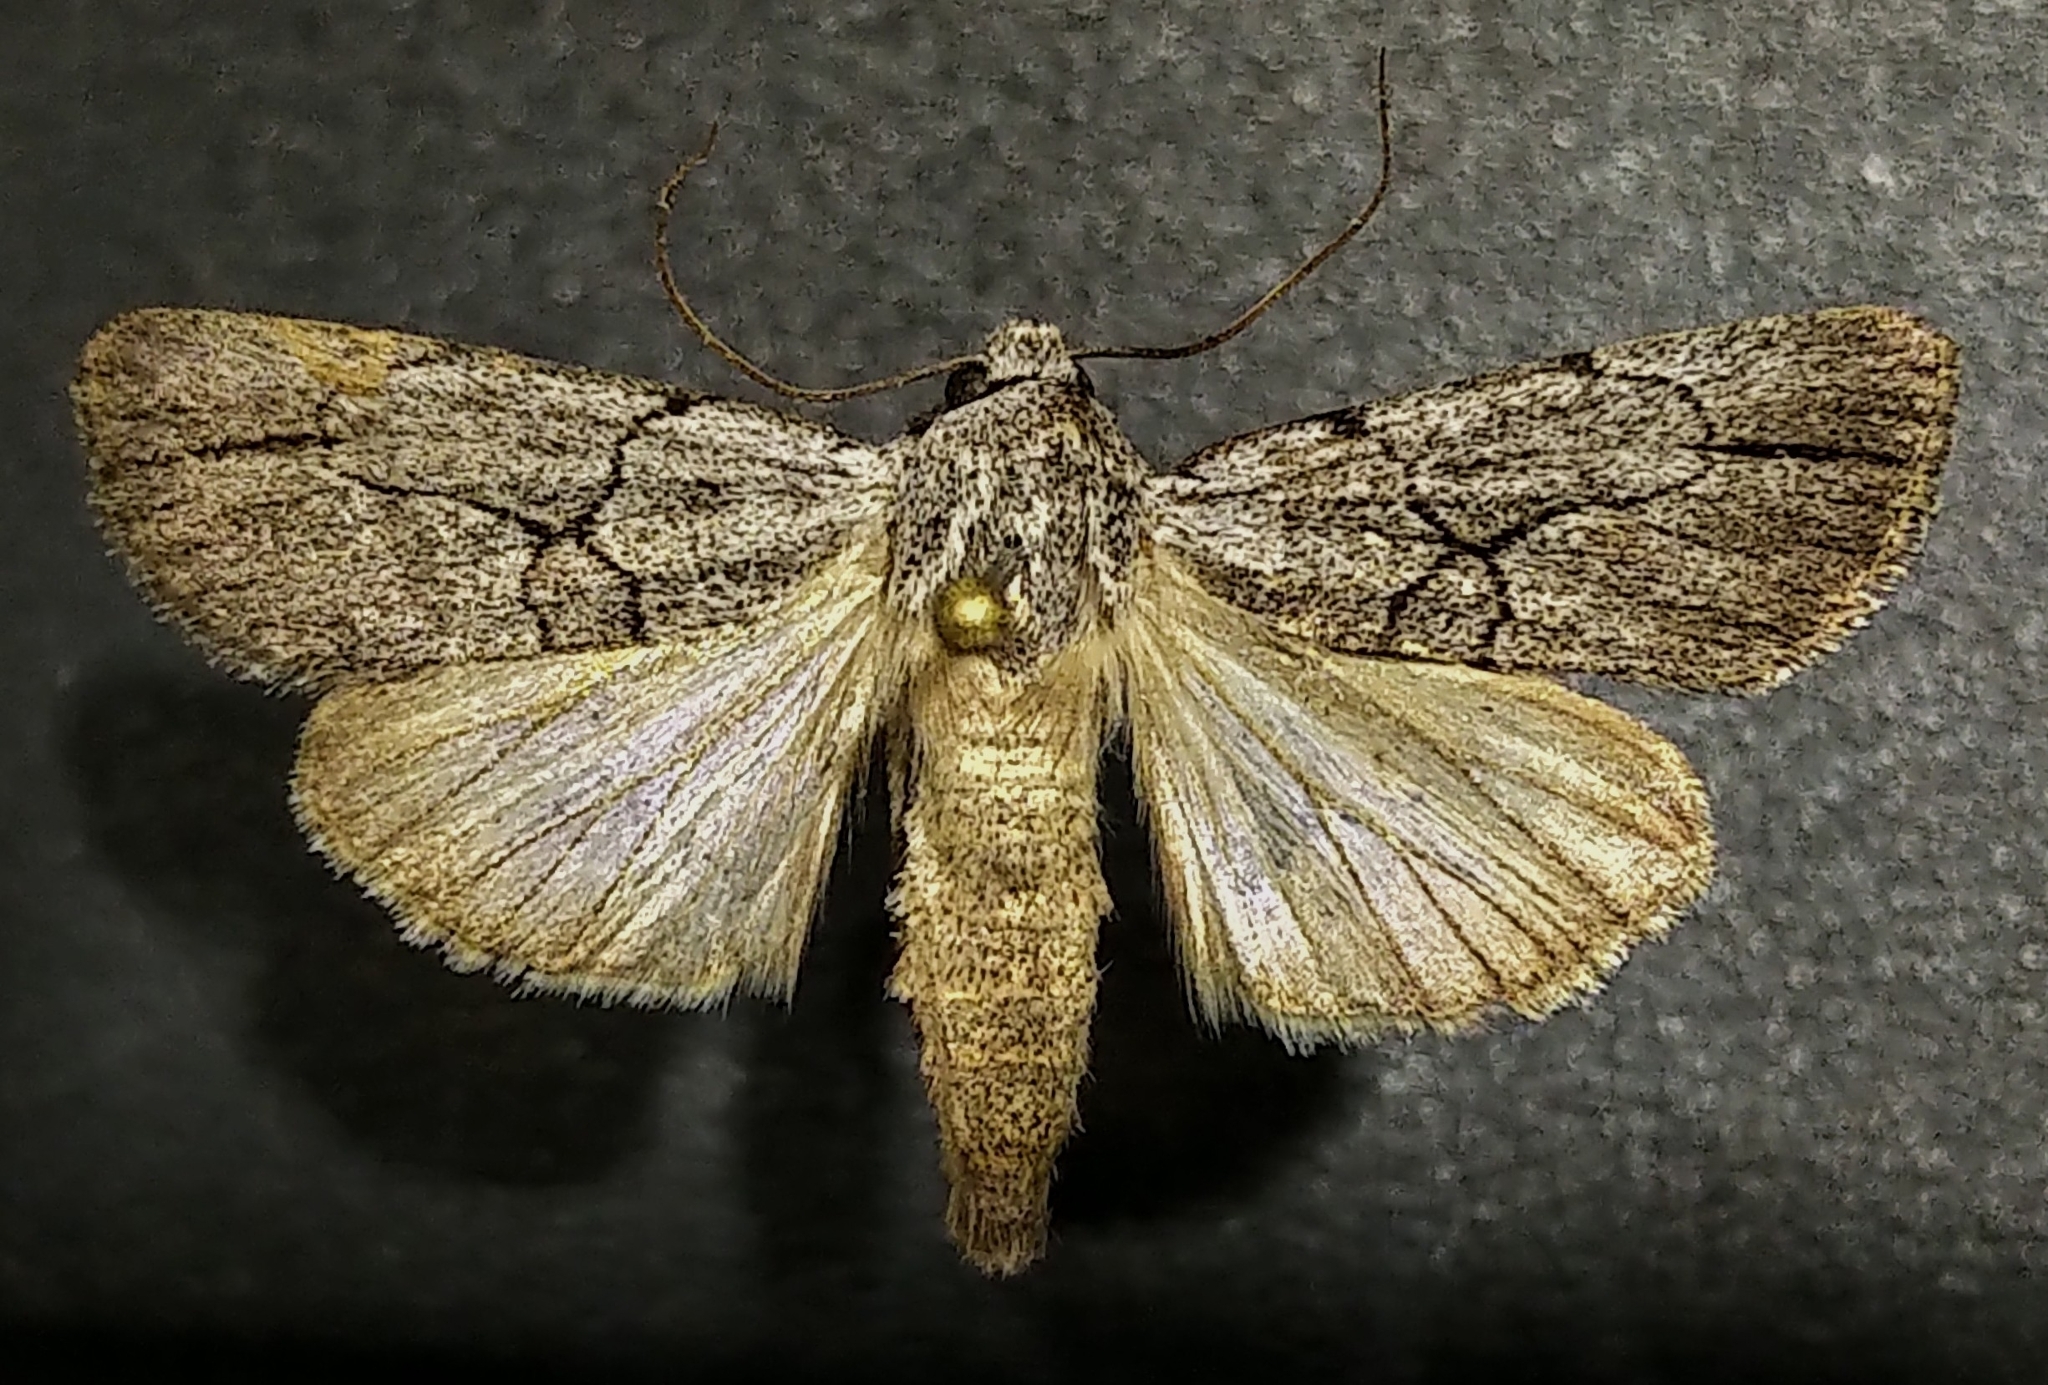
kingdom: Animalia
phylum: Arthropoda
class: Insecta
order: Lepidoptera
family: Noctuidae
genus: Sympistis
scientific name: Sympistis semicollaris
